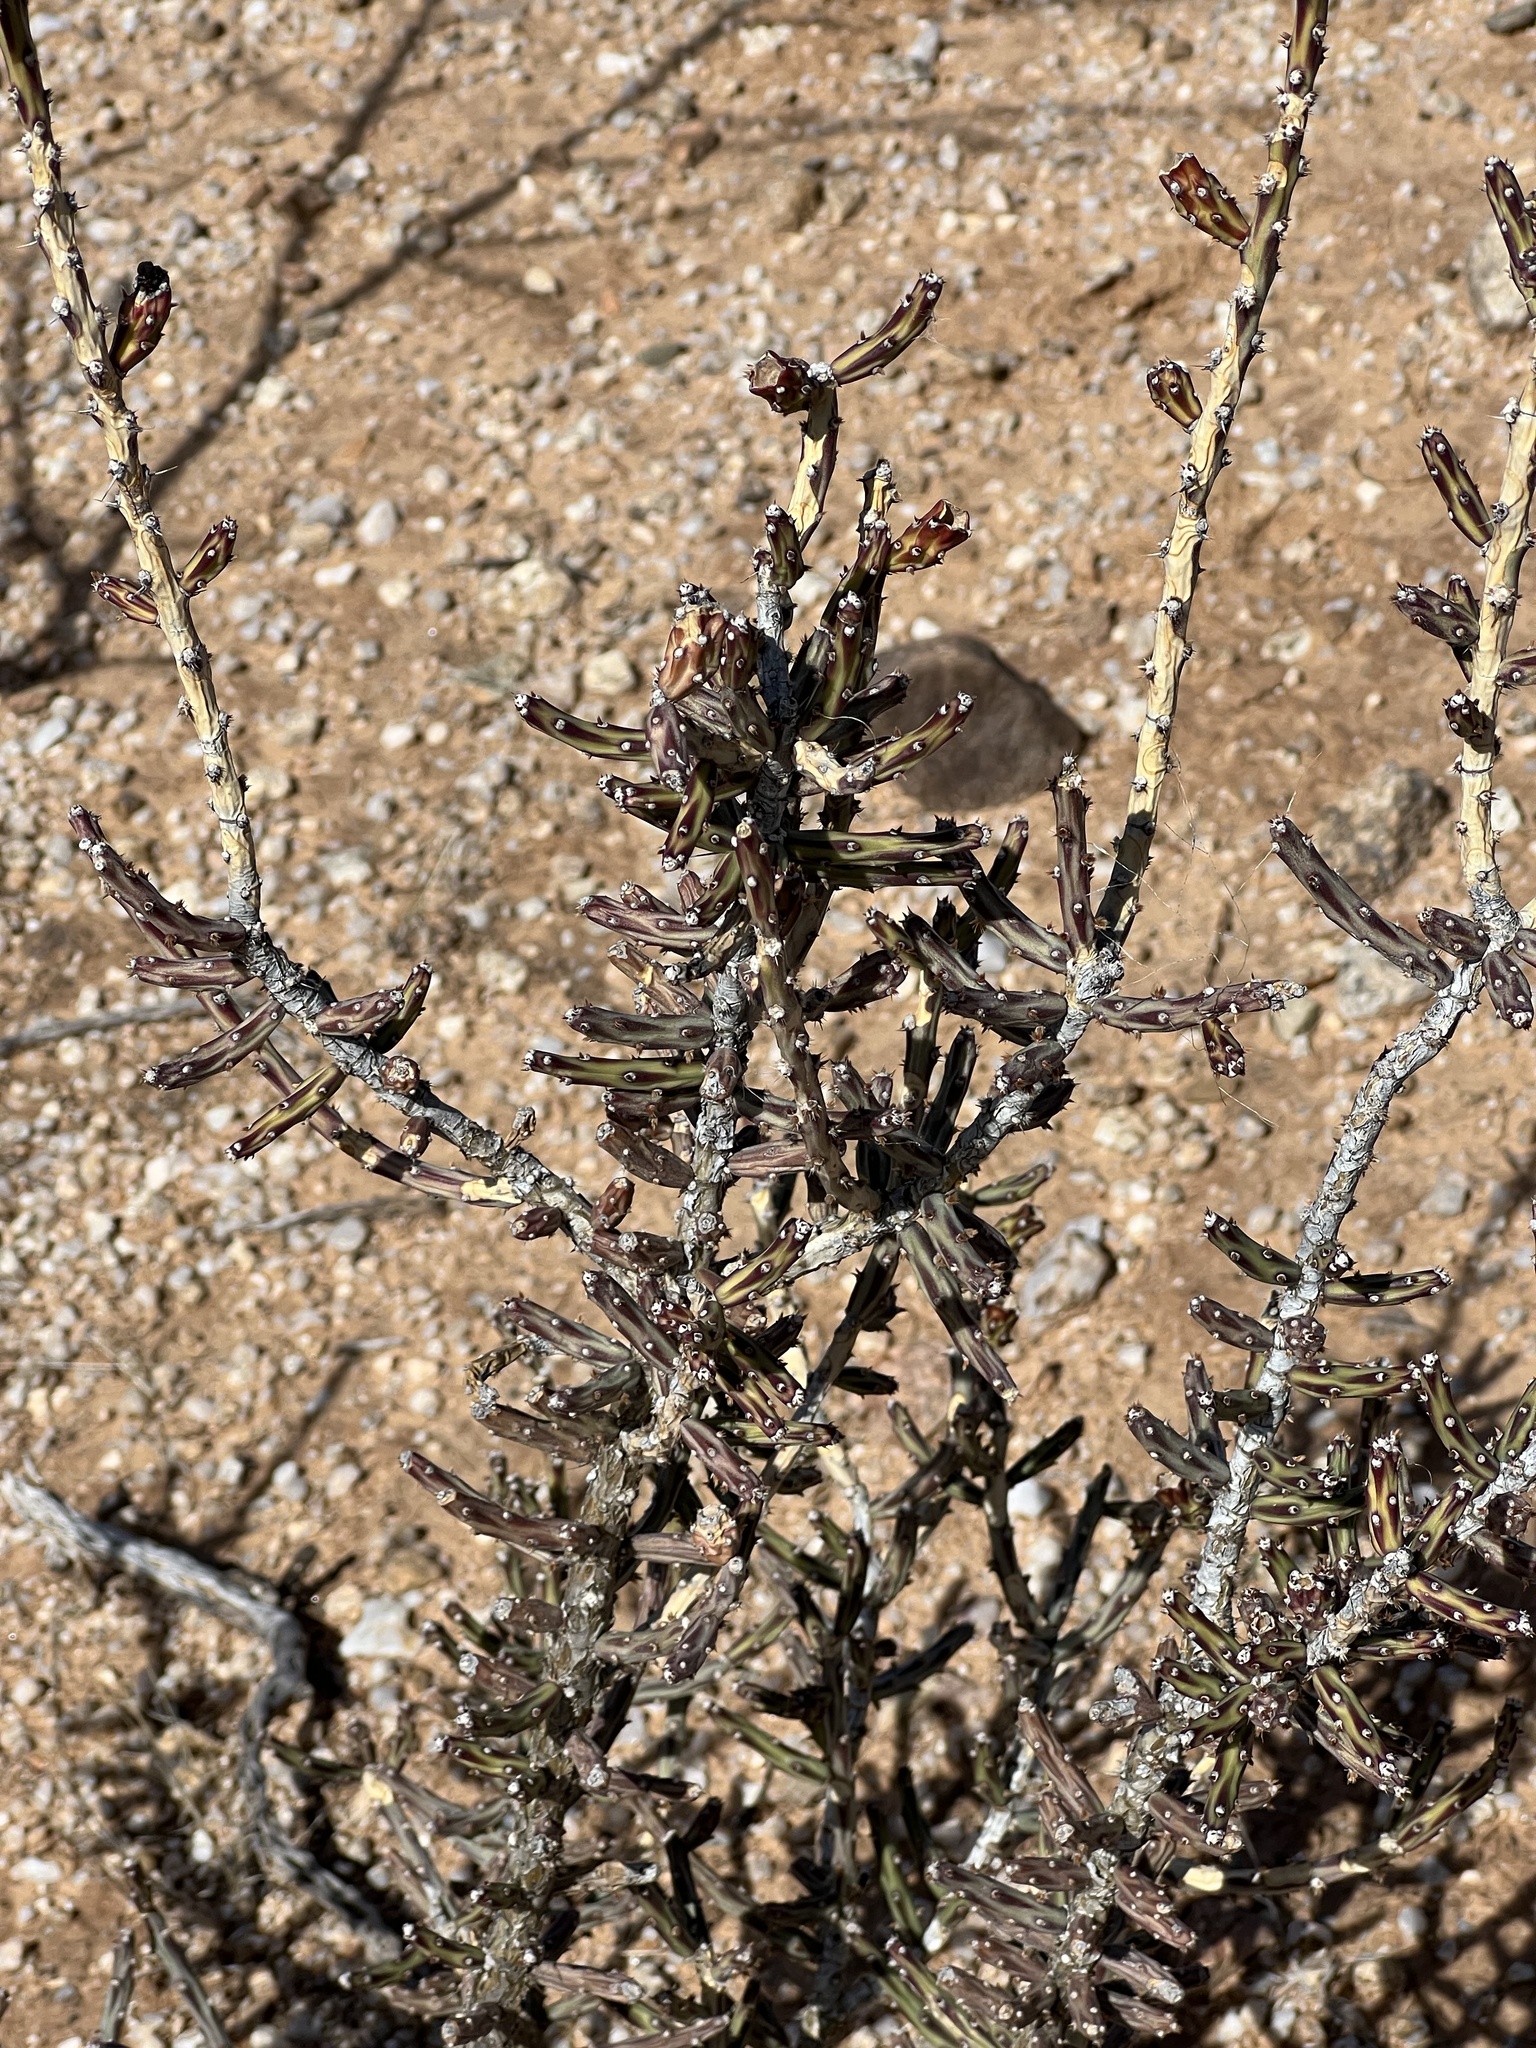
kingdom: Plantae
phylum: Tracheophyta
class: Magnoliopsida
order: Caryophyllales
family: Cactaceae
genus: Cylindropuntia
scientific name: Cylindropuntia leptocaulis
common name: Christmas cactus
